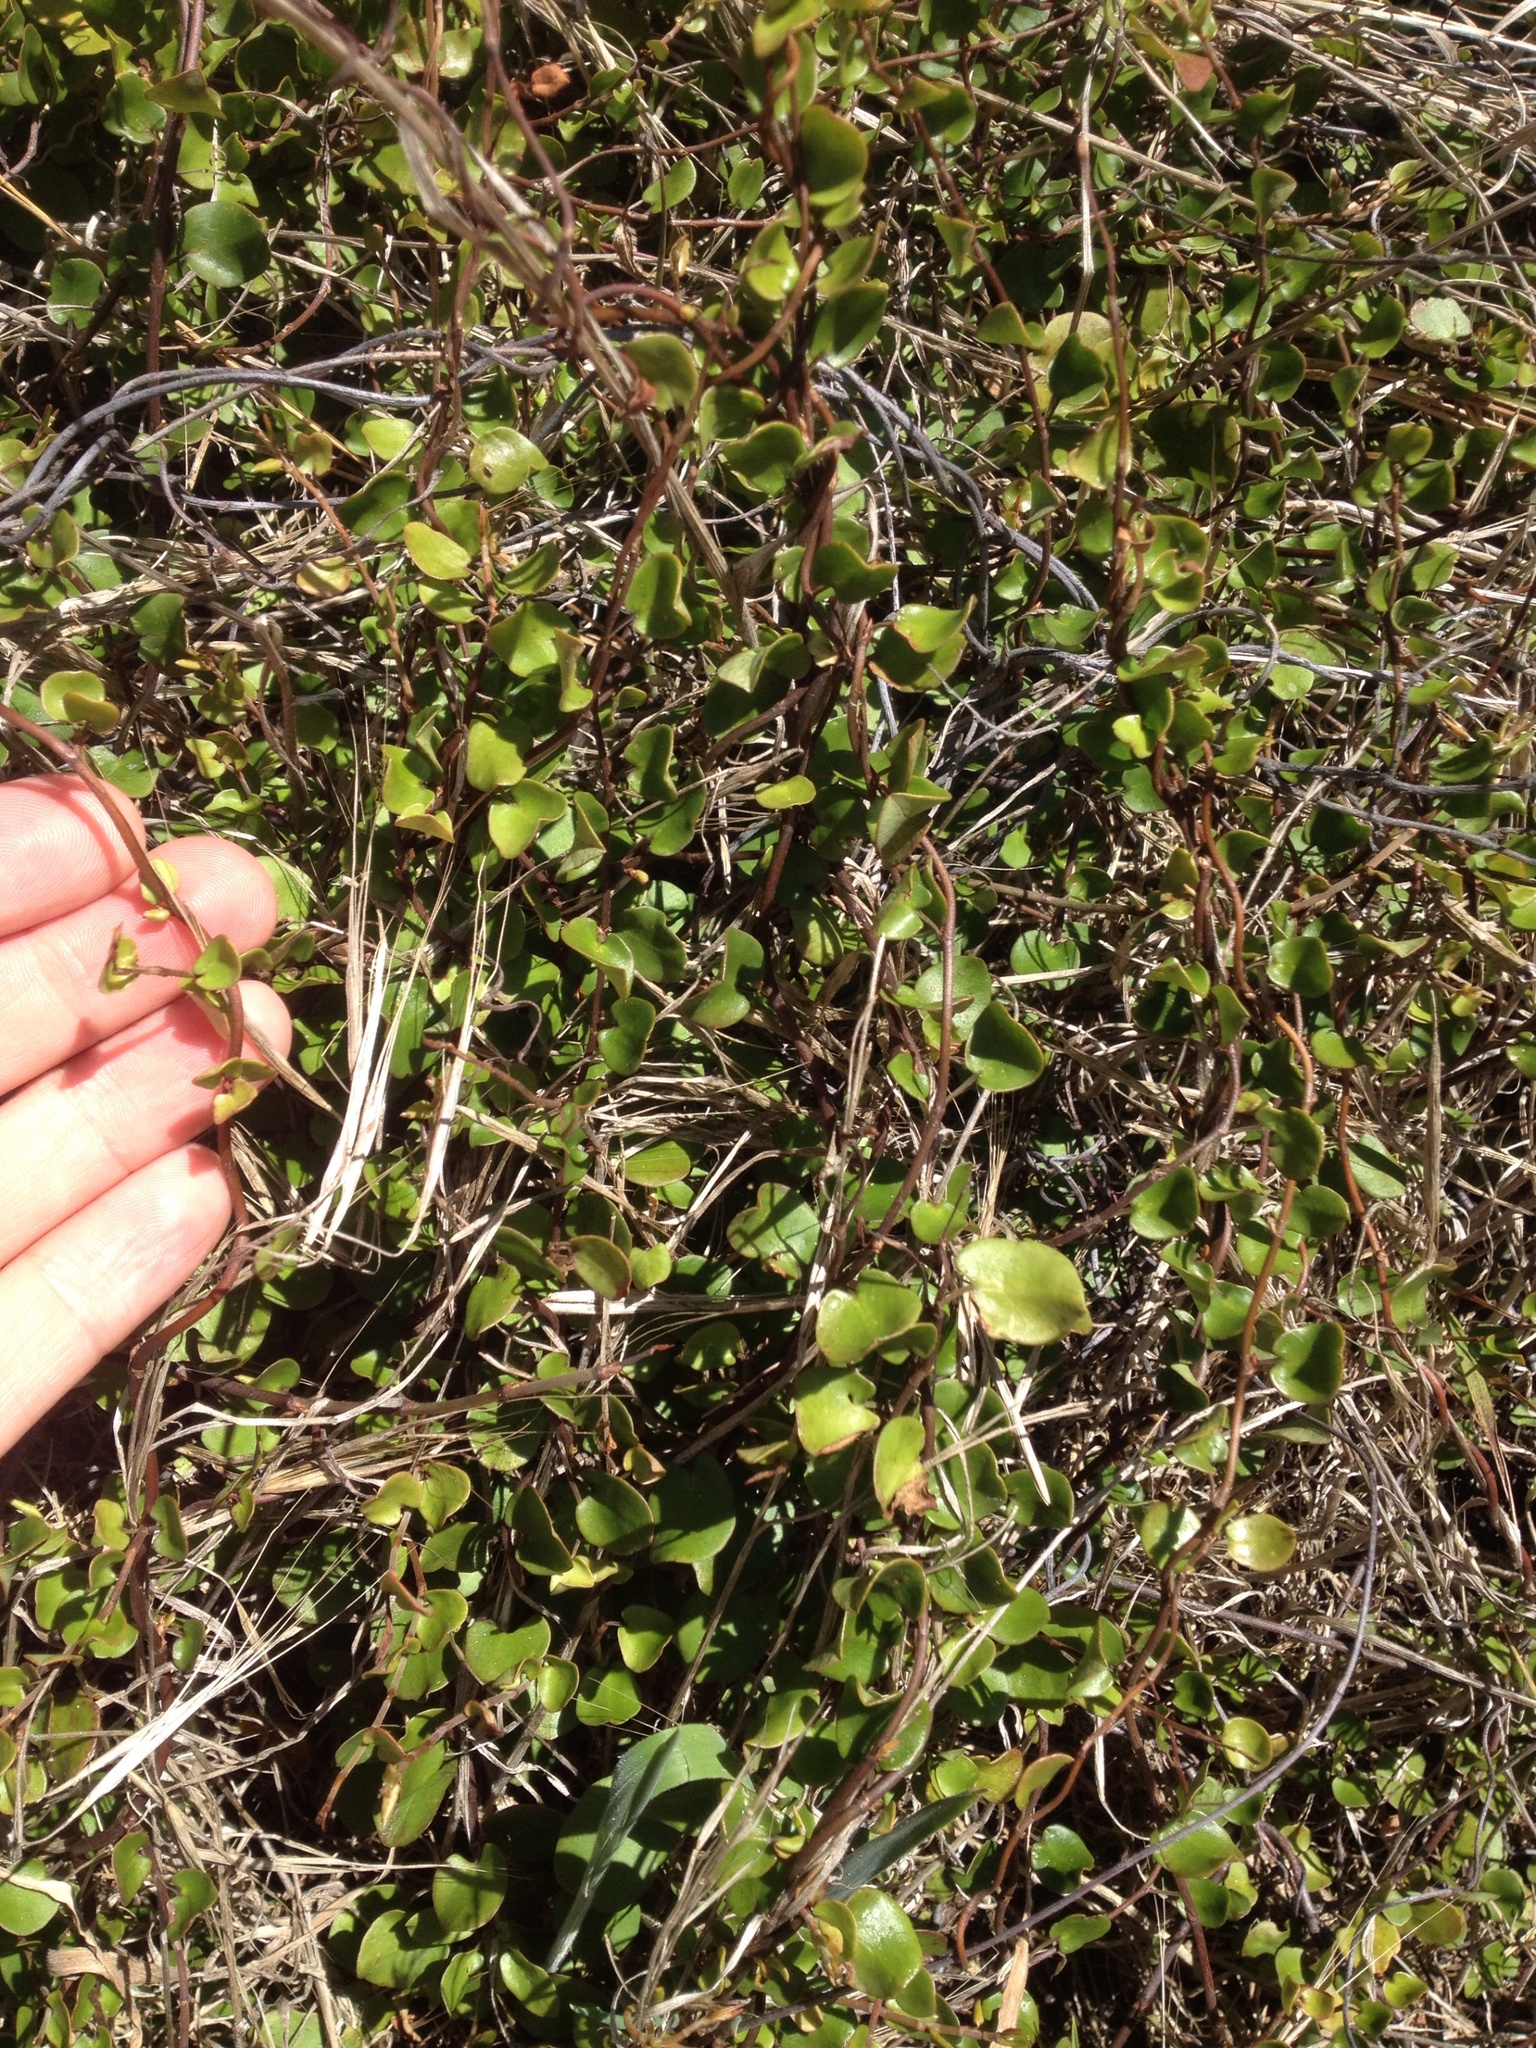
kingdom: Plantae
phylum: Tracheophyta
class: Magnoliopsida
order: Caryophyllales
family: Polygonaceae
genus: Muehlenbeckia
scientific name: Muehlenbeckia complexa
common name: Wireplant
